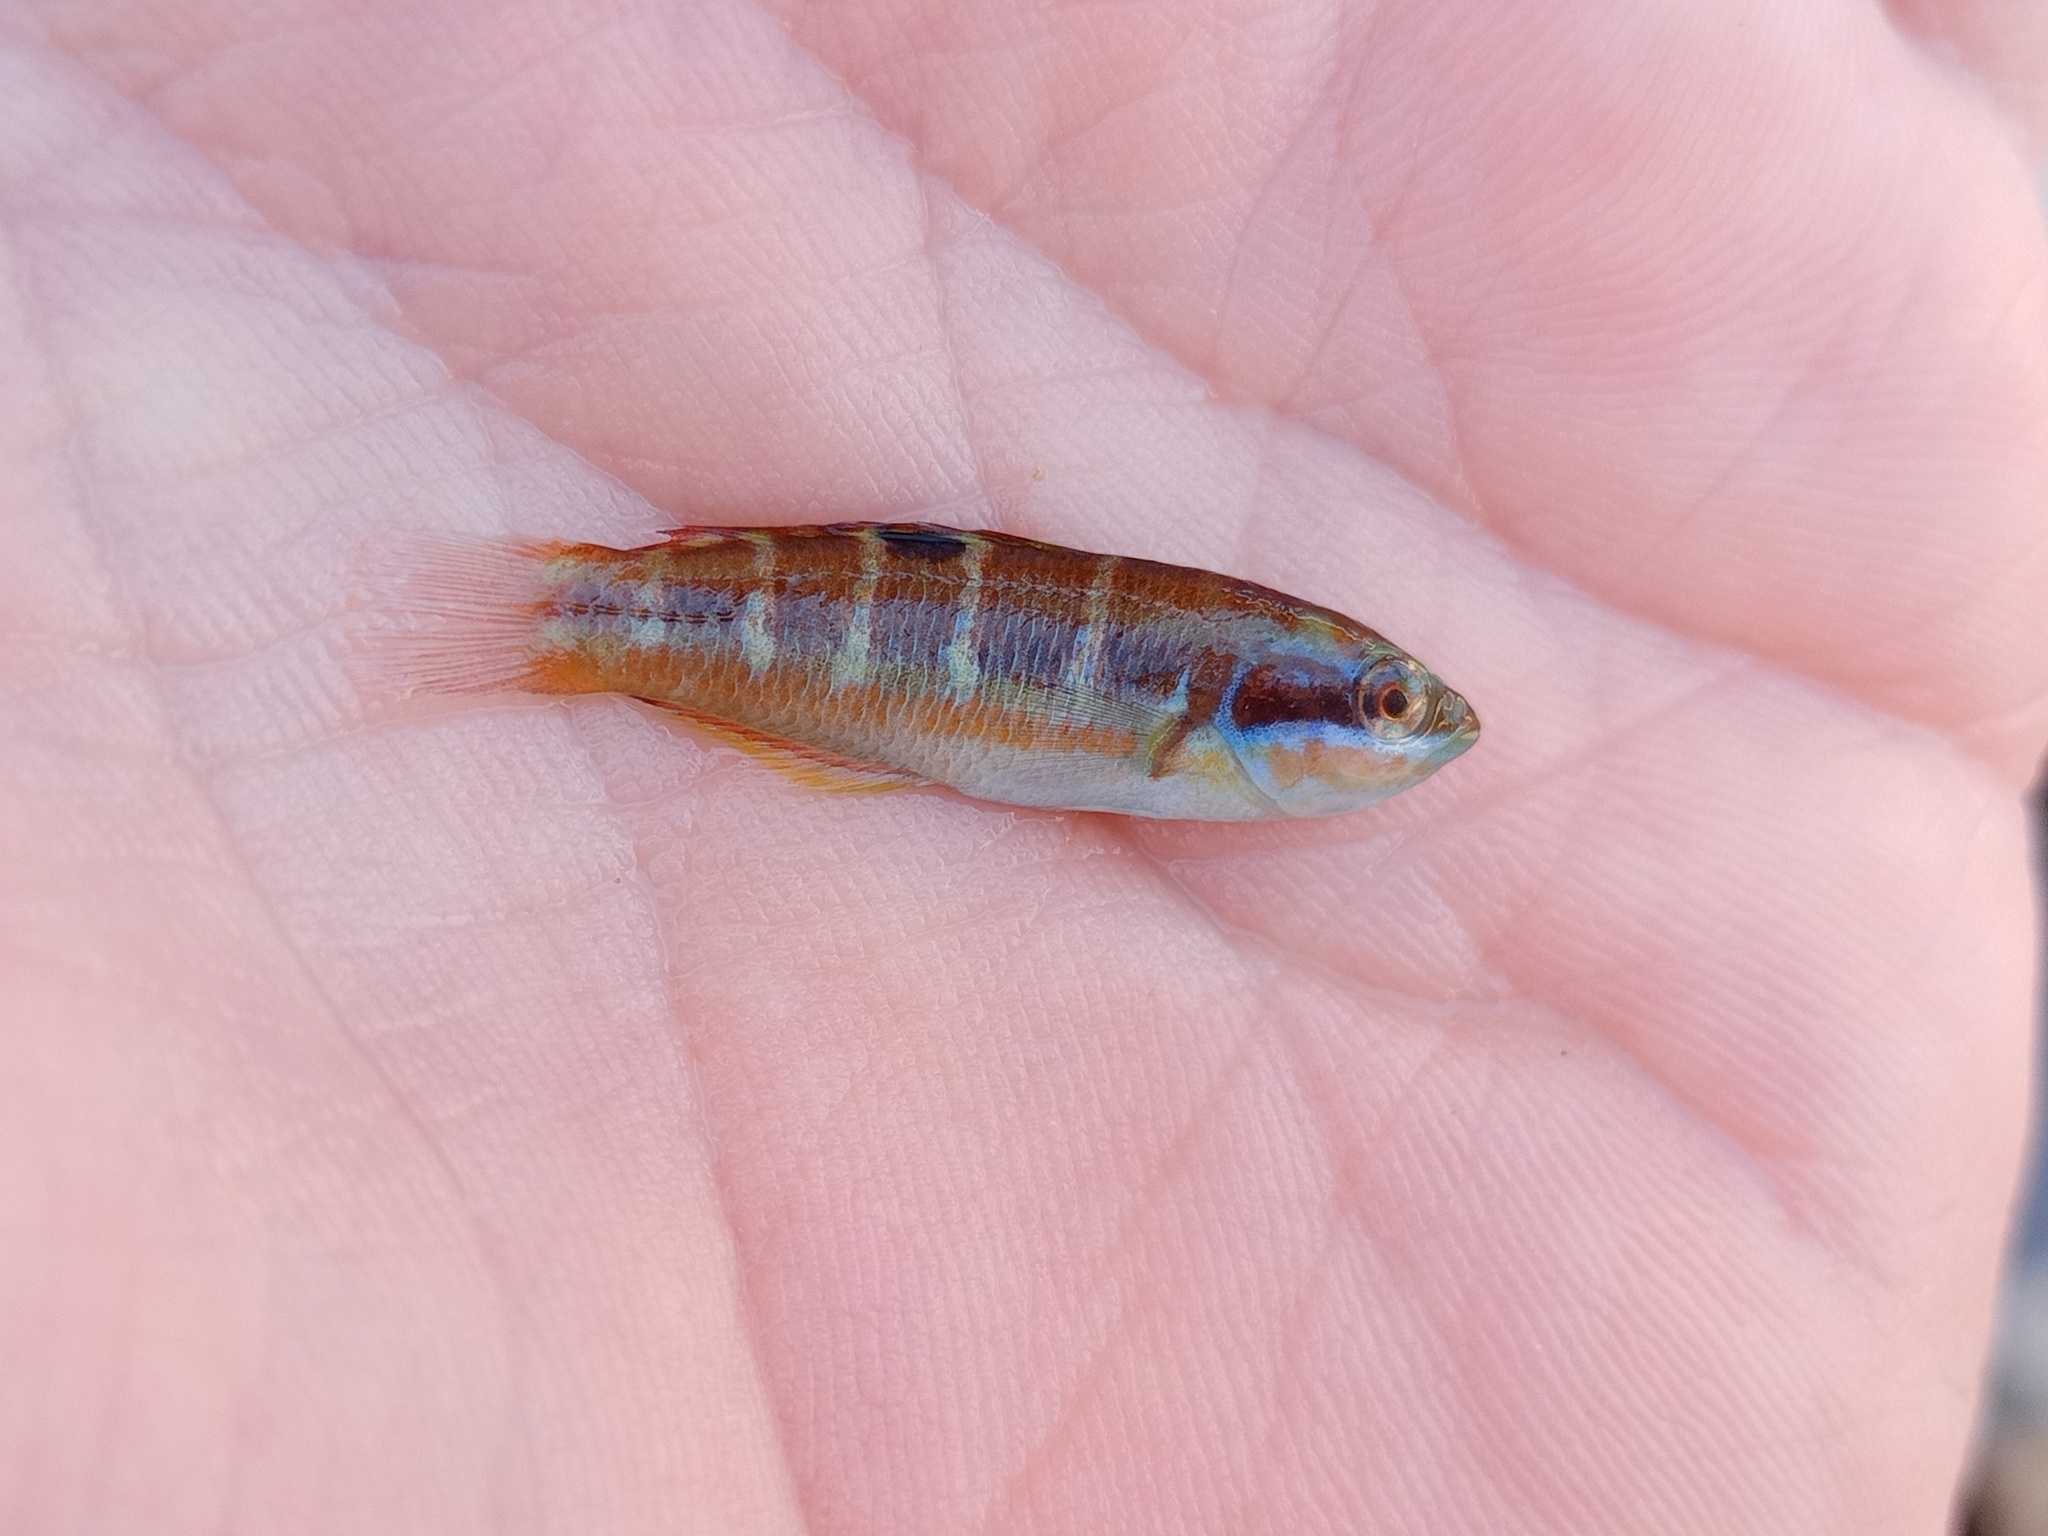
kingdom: Animalia
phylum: Chordata
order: Perciformes
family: Labridae
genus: Thalassoma
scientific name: Thalassoma pavo
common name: Ornate wrasse
